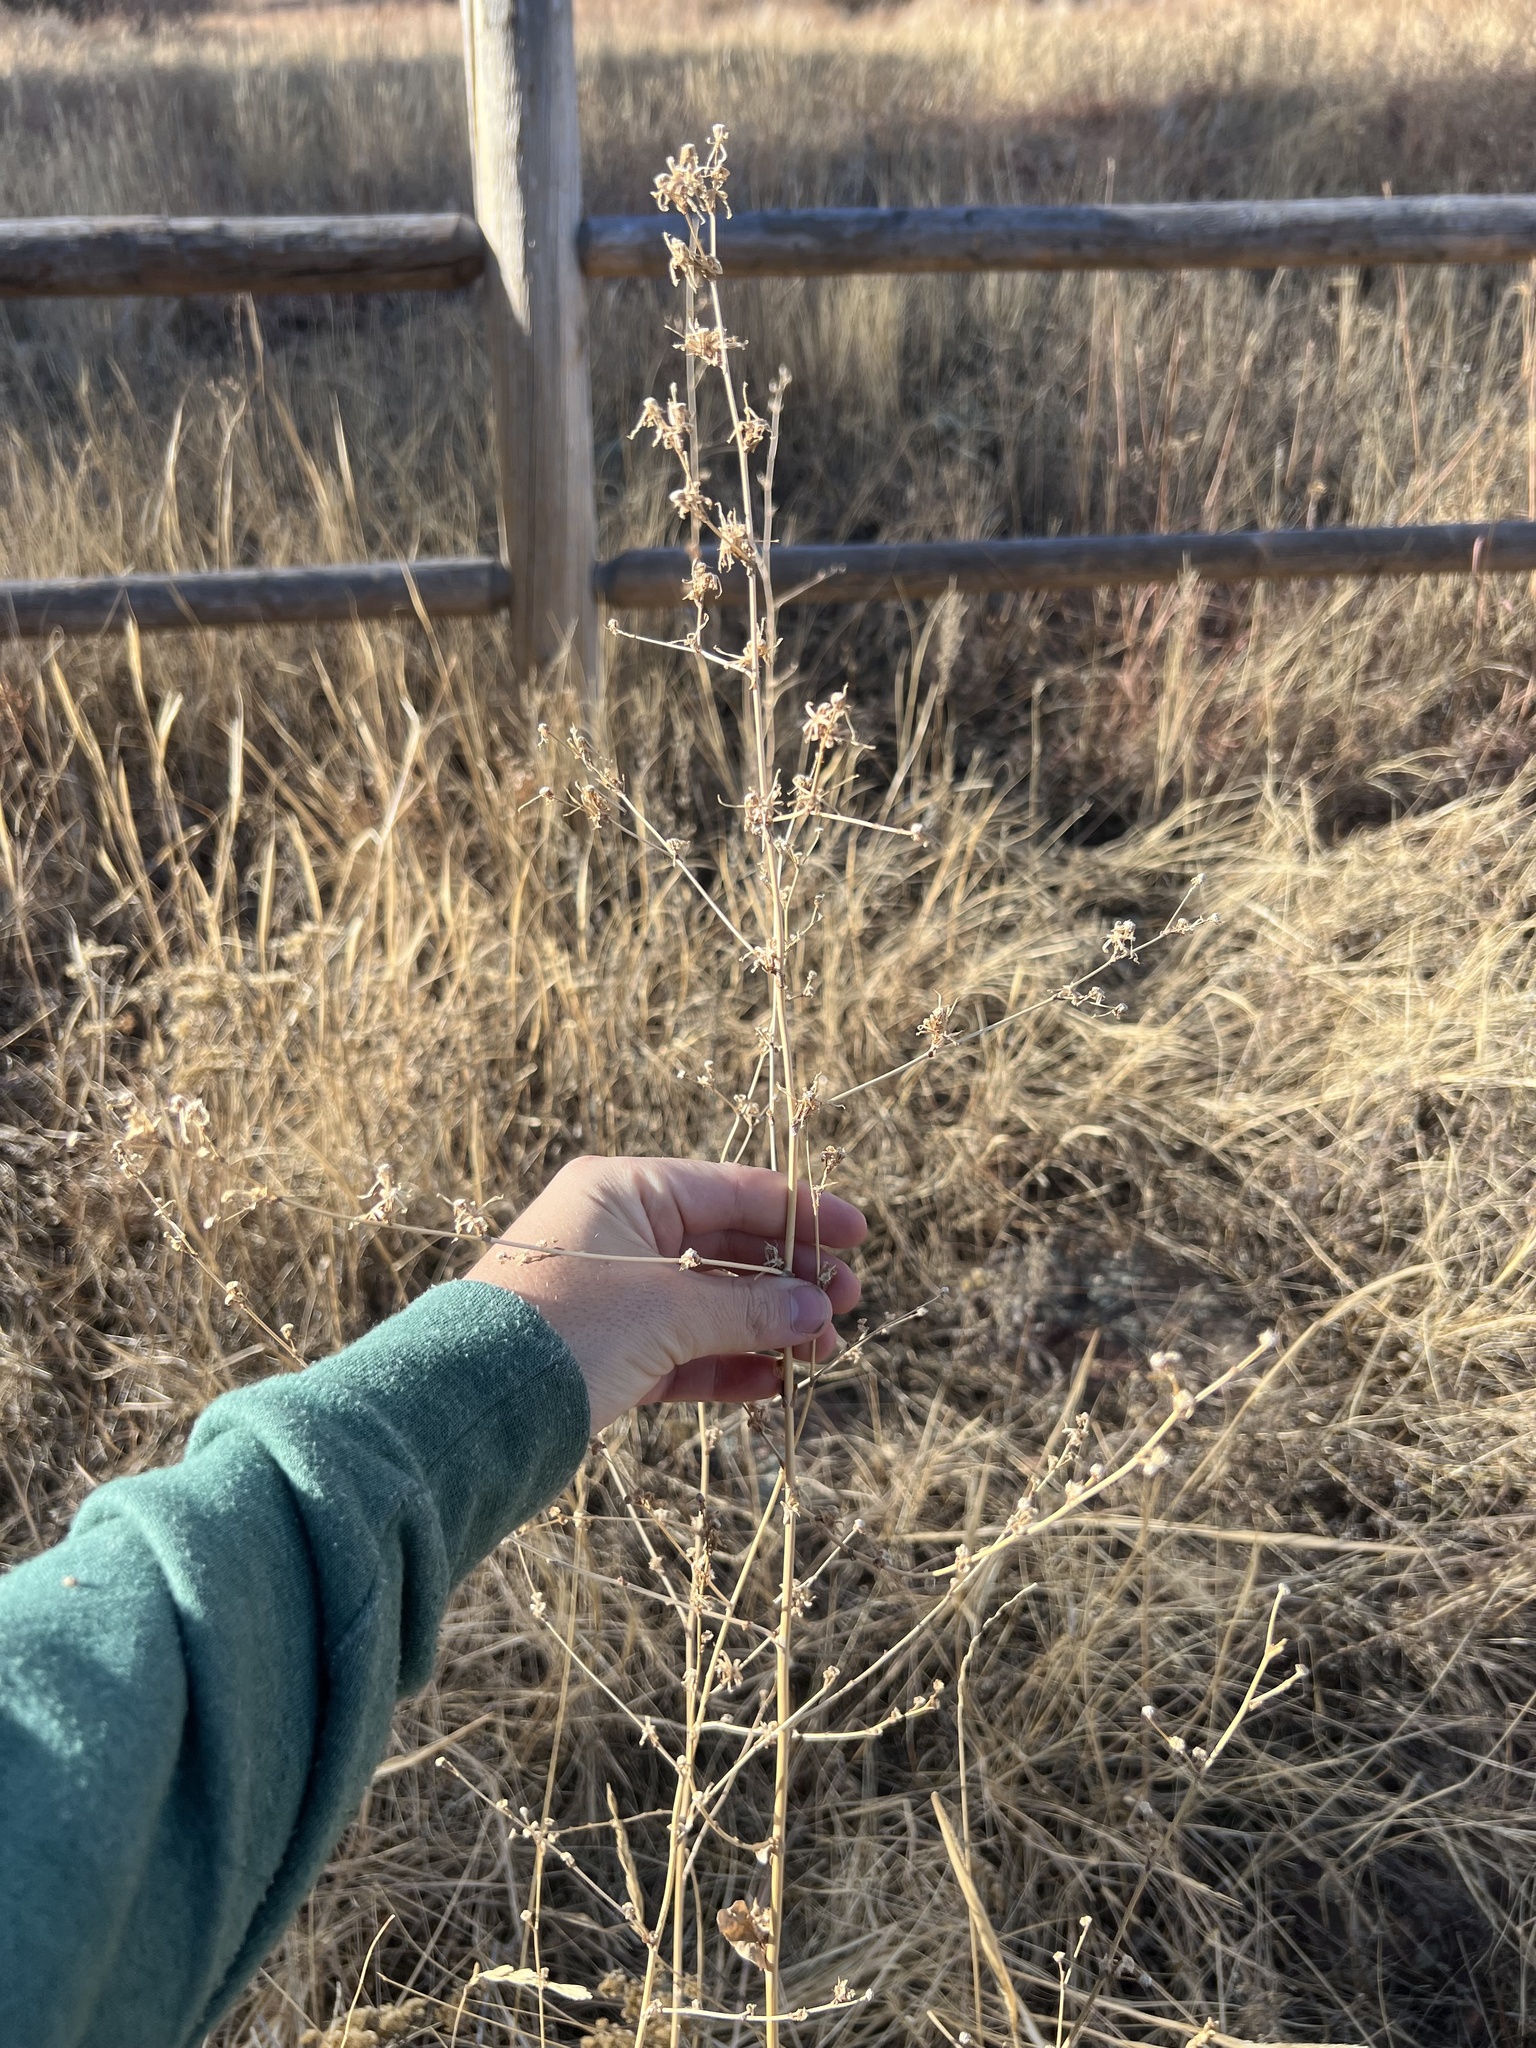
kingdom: Plantae
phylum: Tracheophyta
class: Magnoliopsida
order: Asterales
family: Asteraceae
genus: Cichorium
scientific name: Cichorium intybus
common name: Chicory
